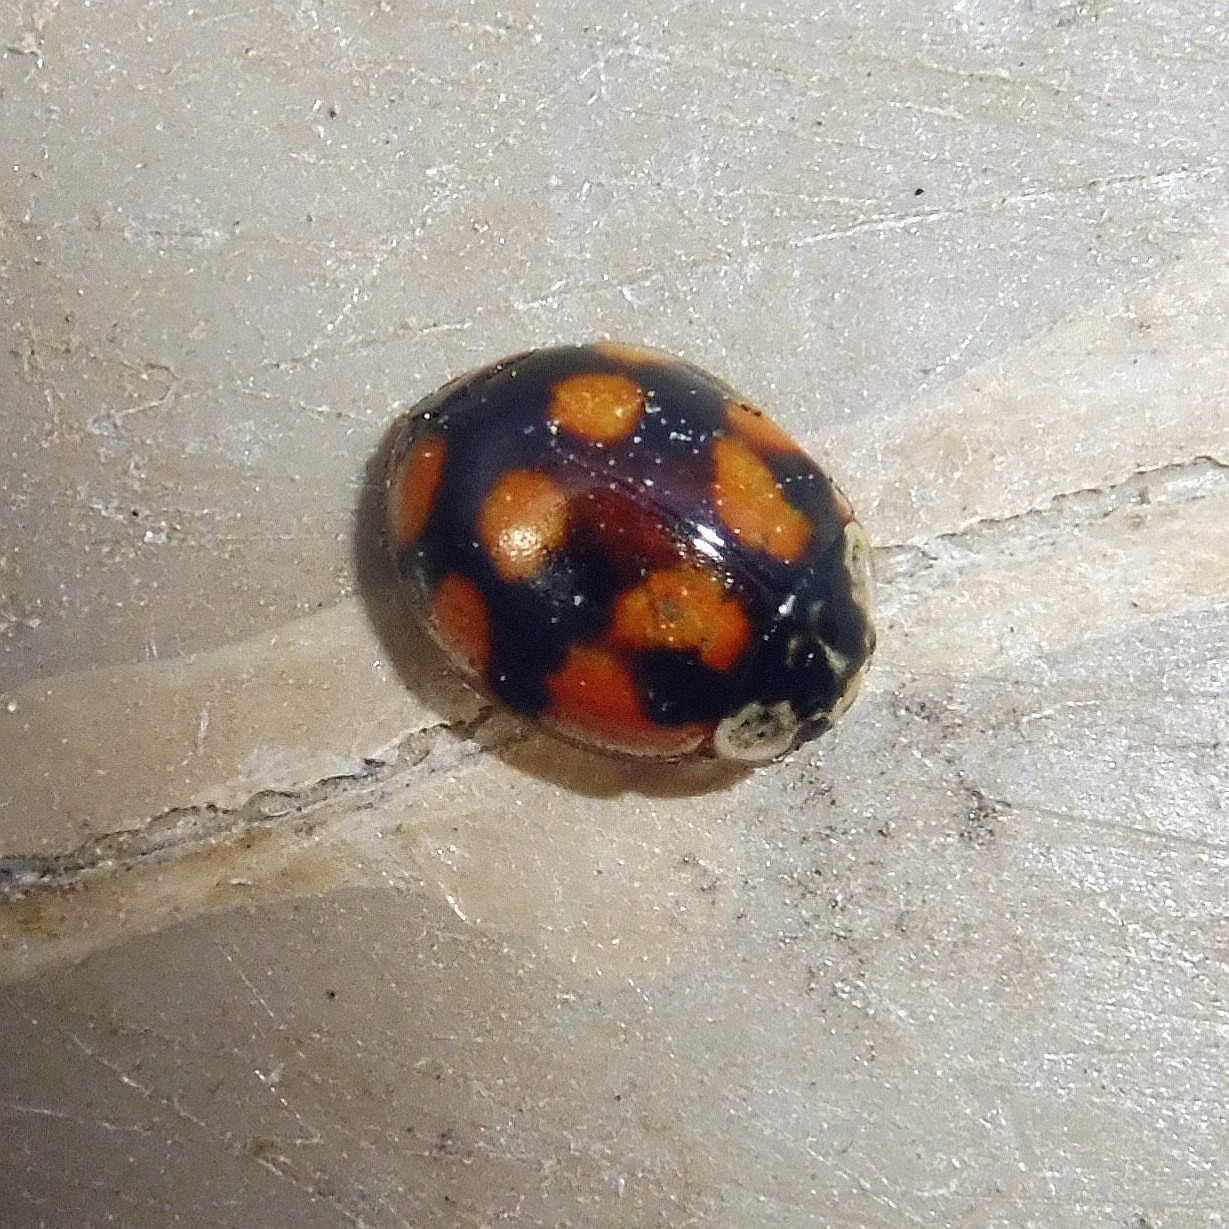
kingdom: Animalia
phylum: Arthropoda
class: Insecta
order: Coleoptera
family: Coccinellidae
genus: Adalia
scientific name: Adalia decempunctata
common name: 10-spot ladybird
